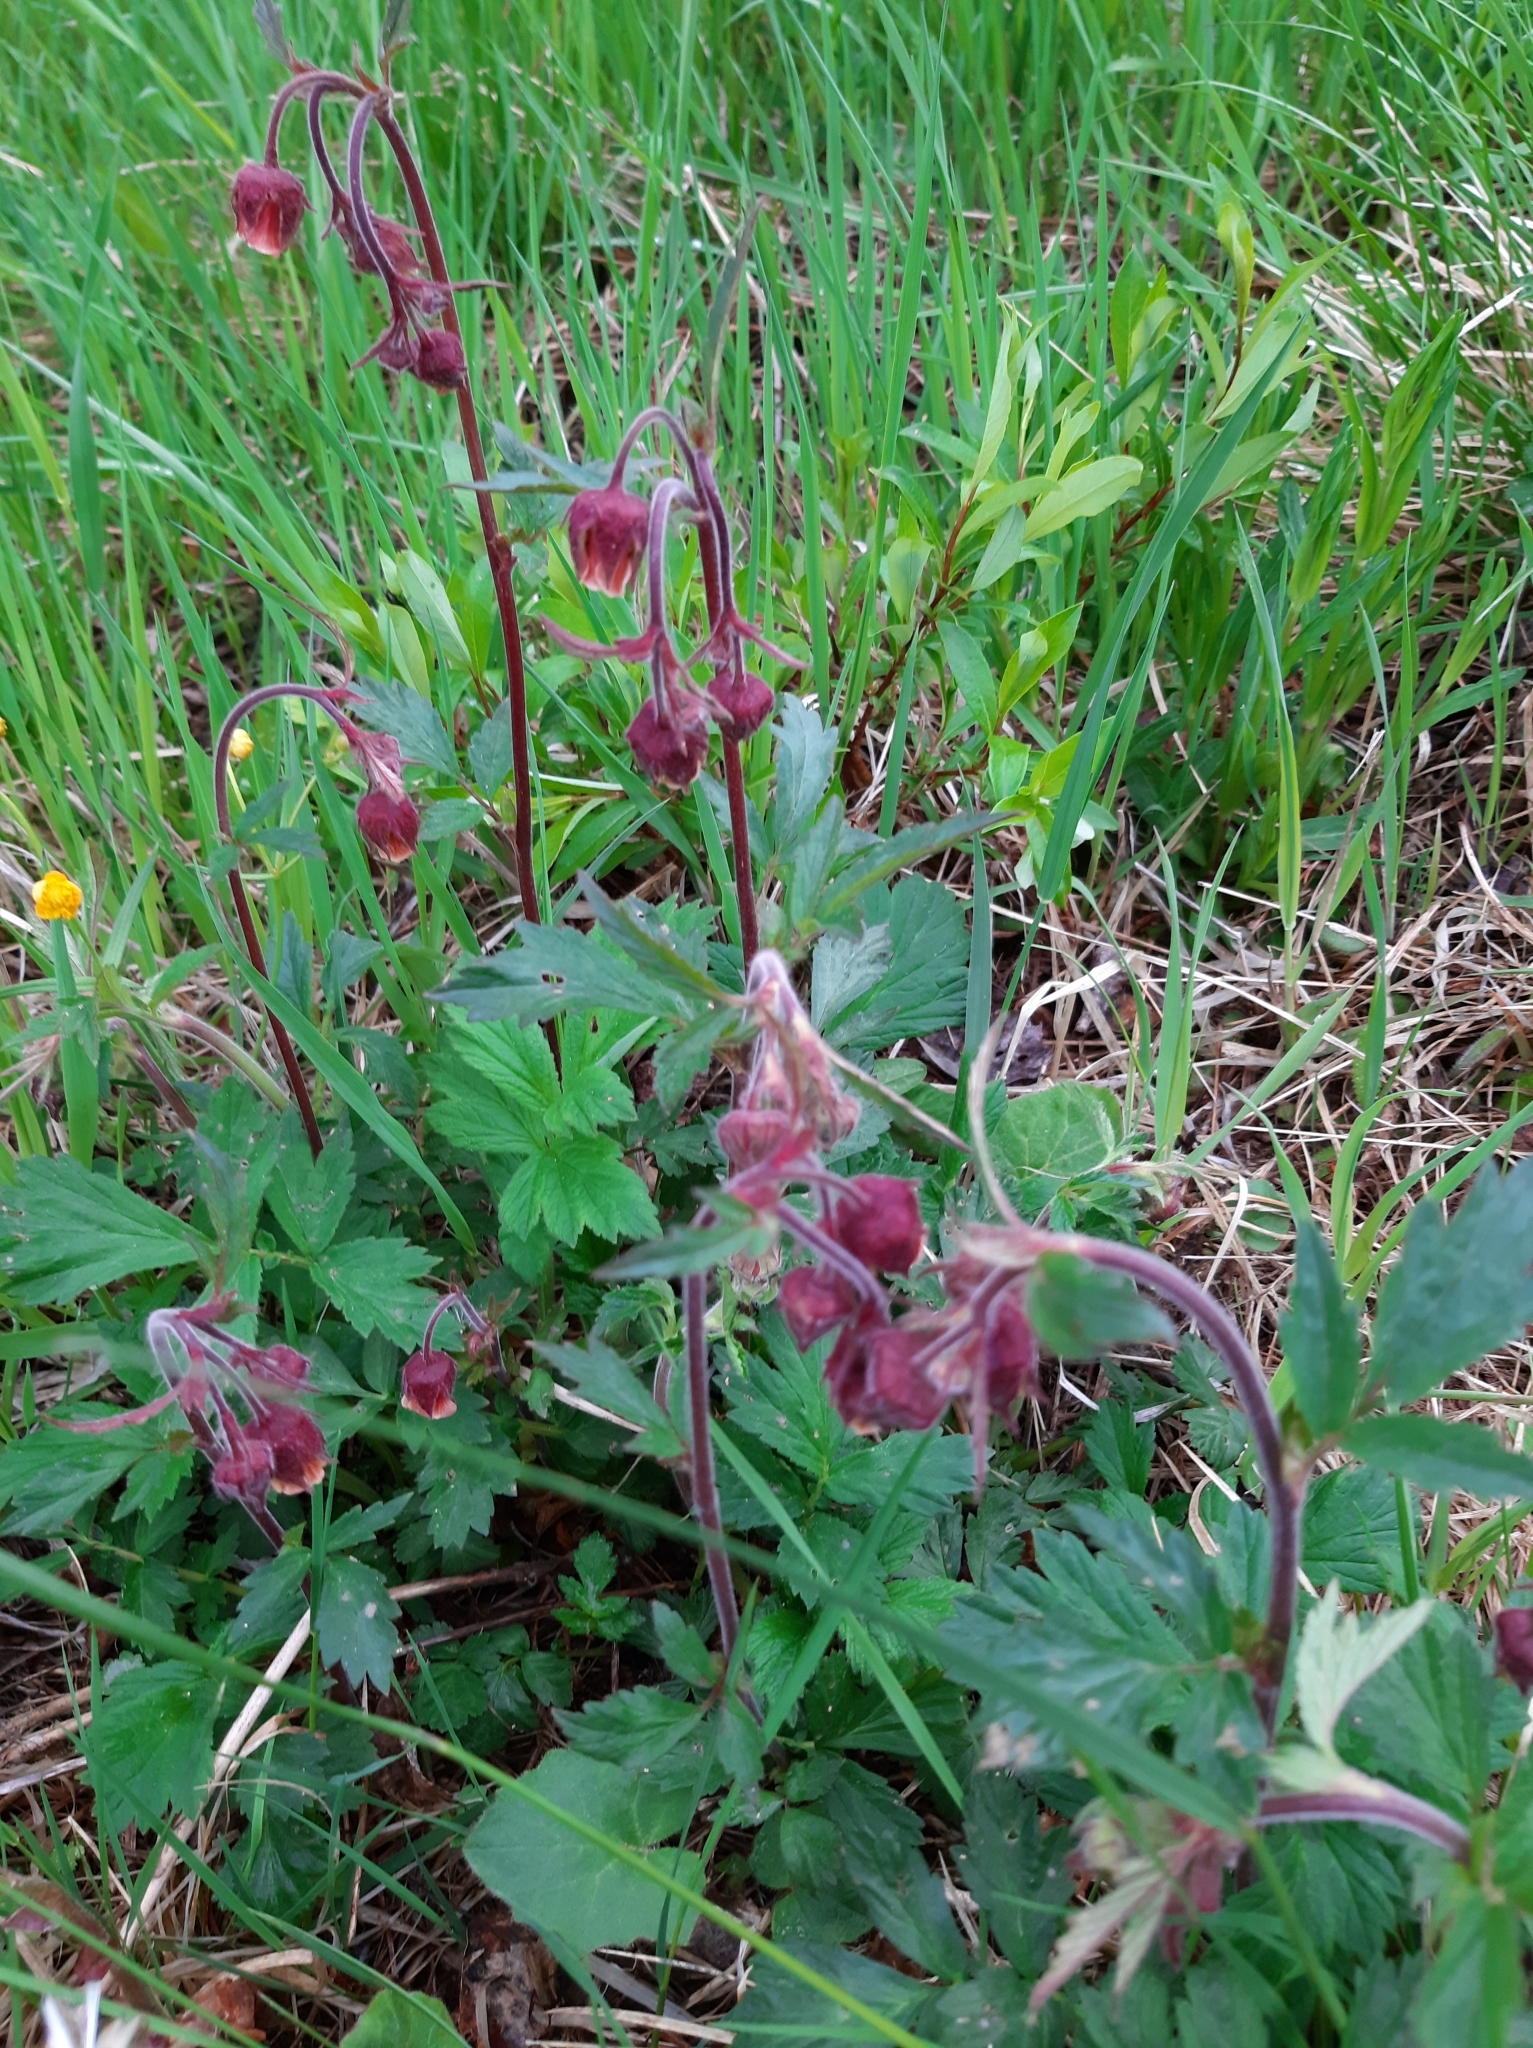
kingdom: Plantae
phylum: Tracheophyta
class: Magnoliopsida
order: Rosales
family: Rosaceae
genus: Geum
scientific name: Geum rivale
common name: Water avens
